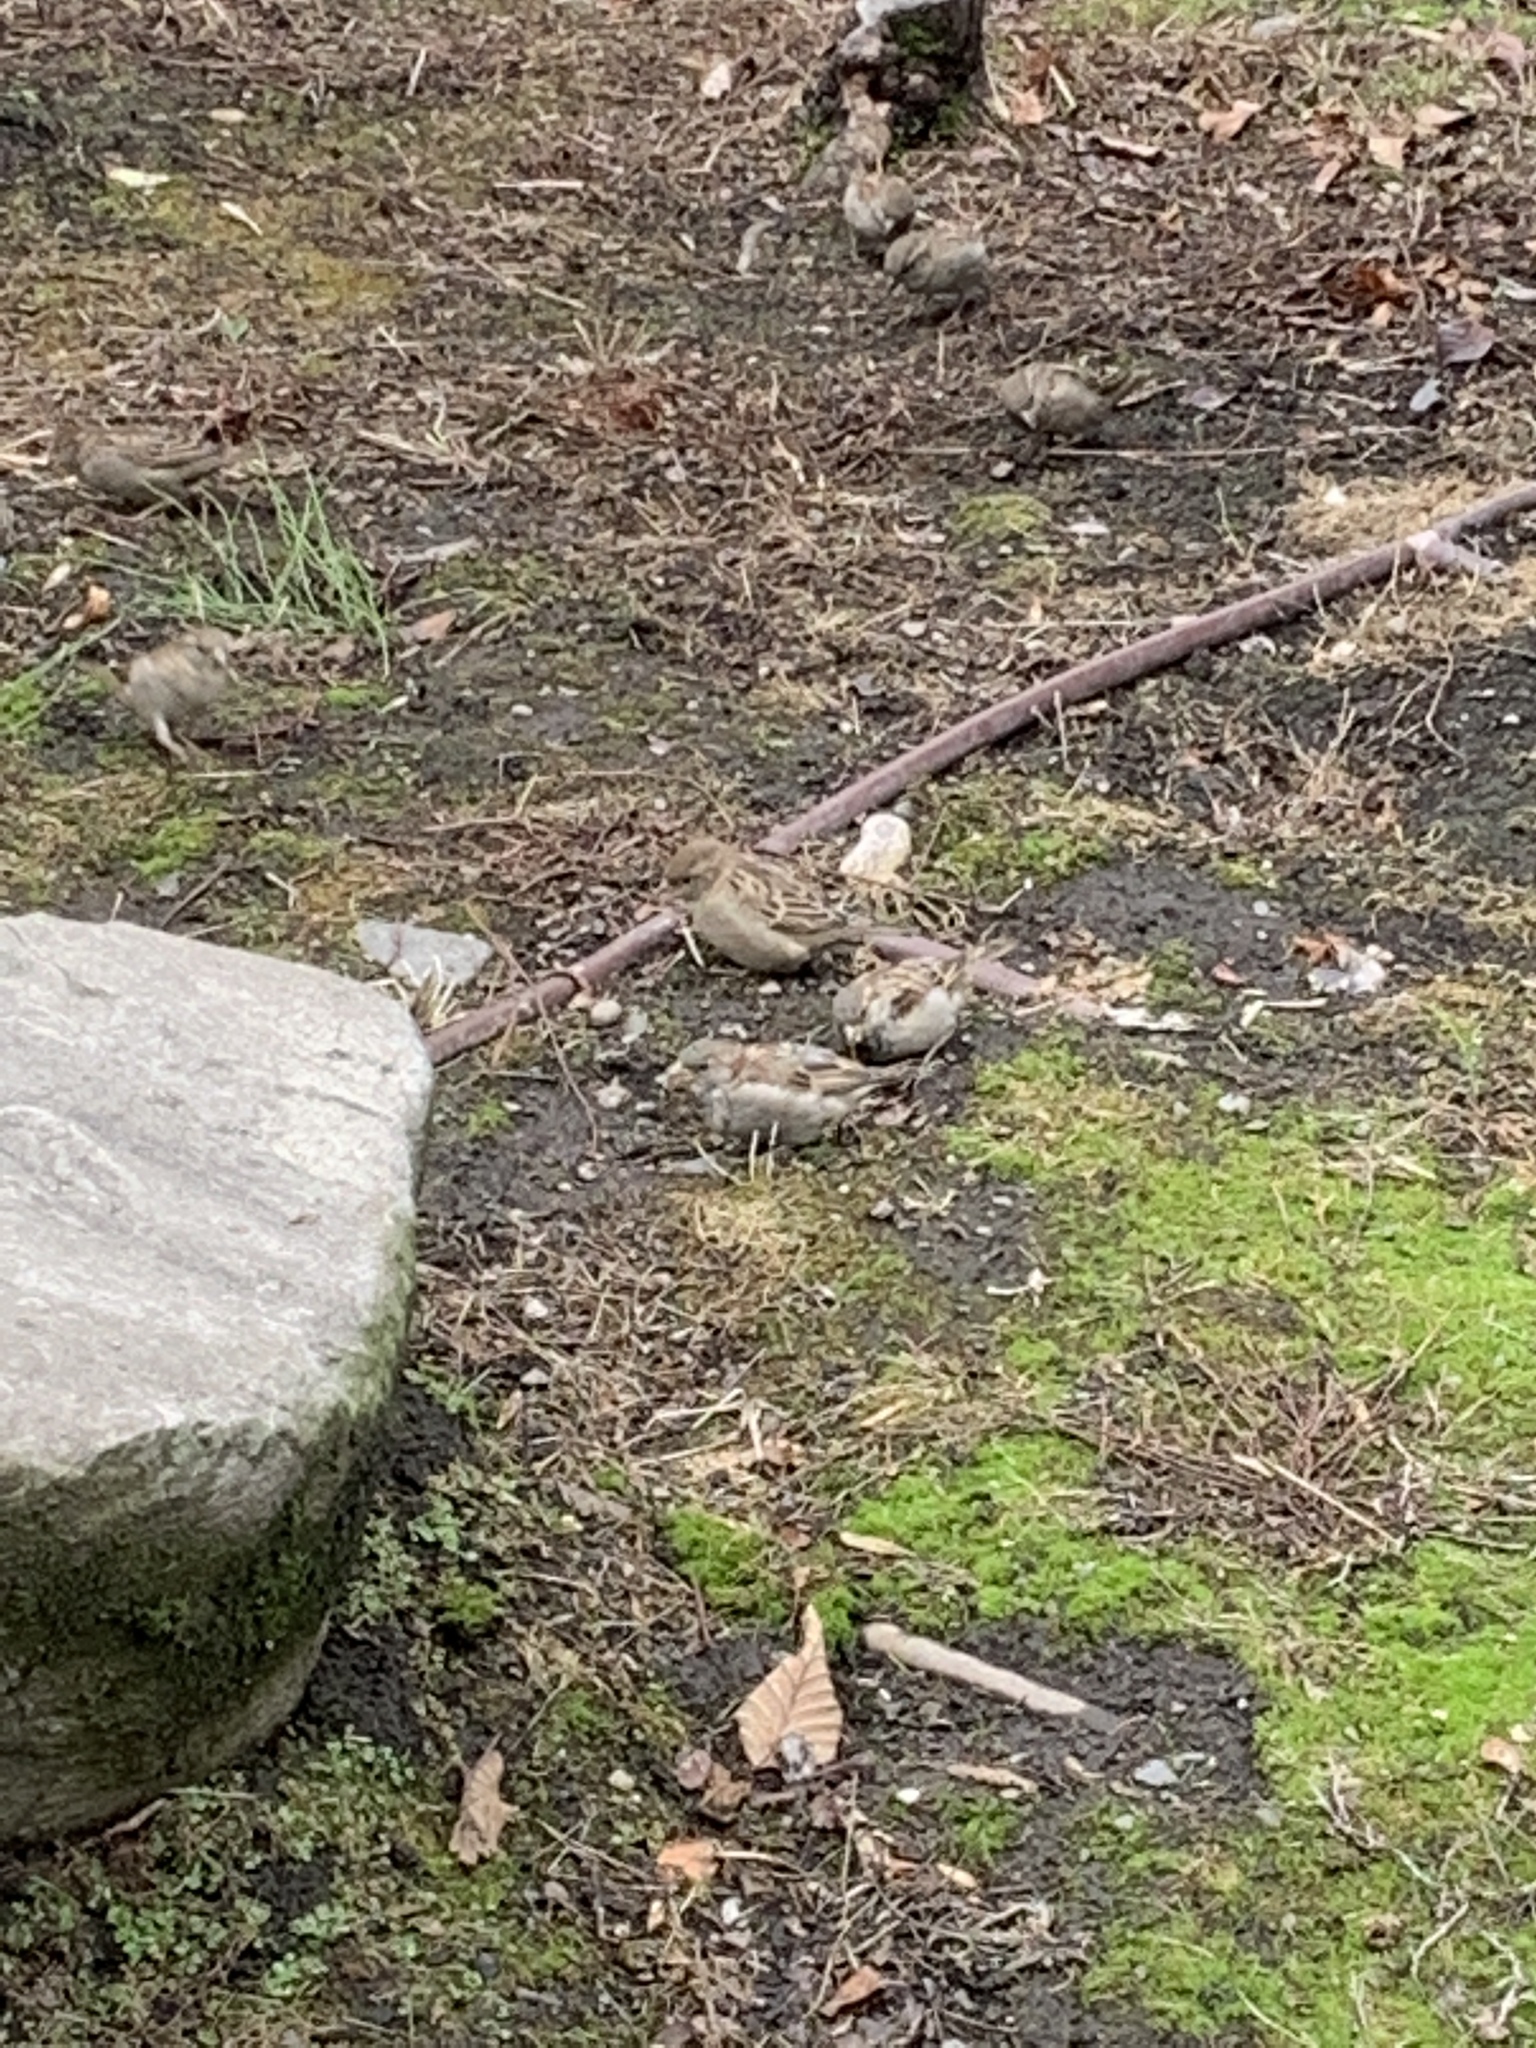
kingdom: Animalia
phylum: Chordata
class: Aves
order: Passeriformes
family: Passeridae
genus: Passer
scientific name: Passer domesticus
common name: House sparrow
